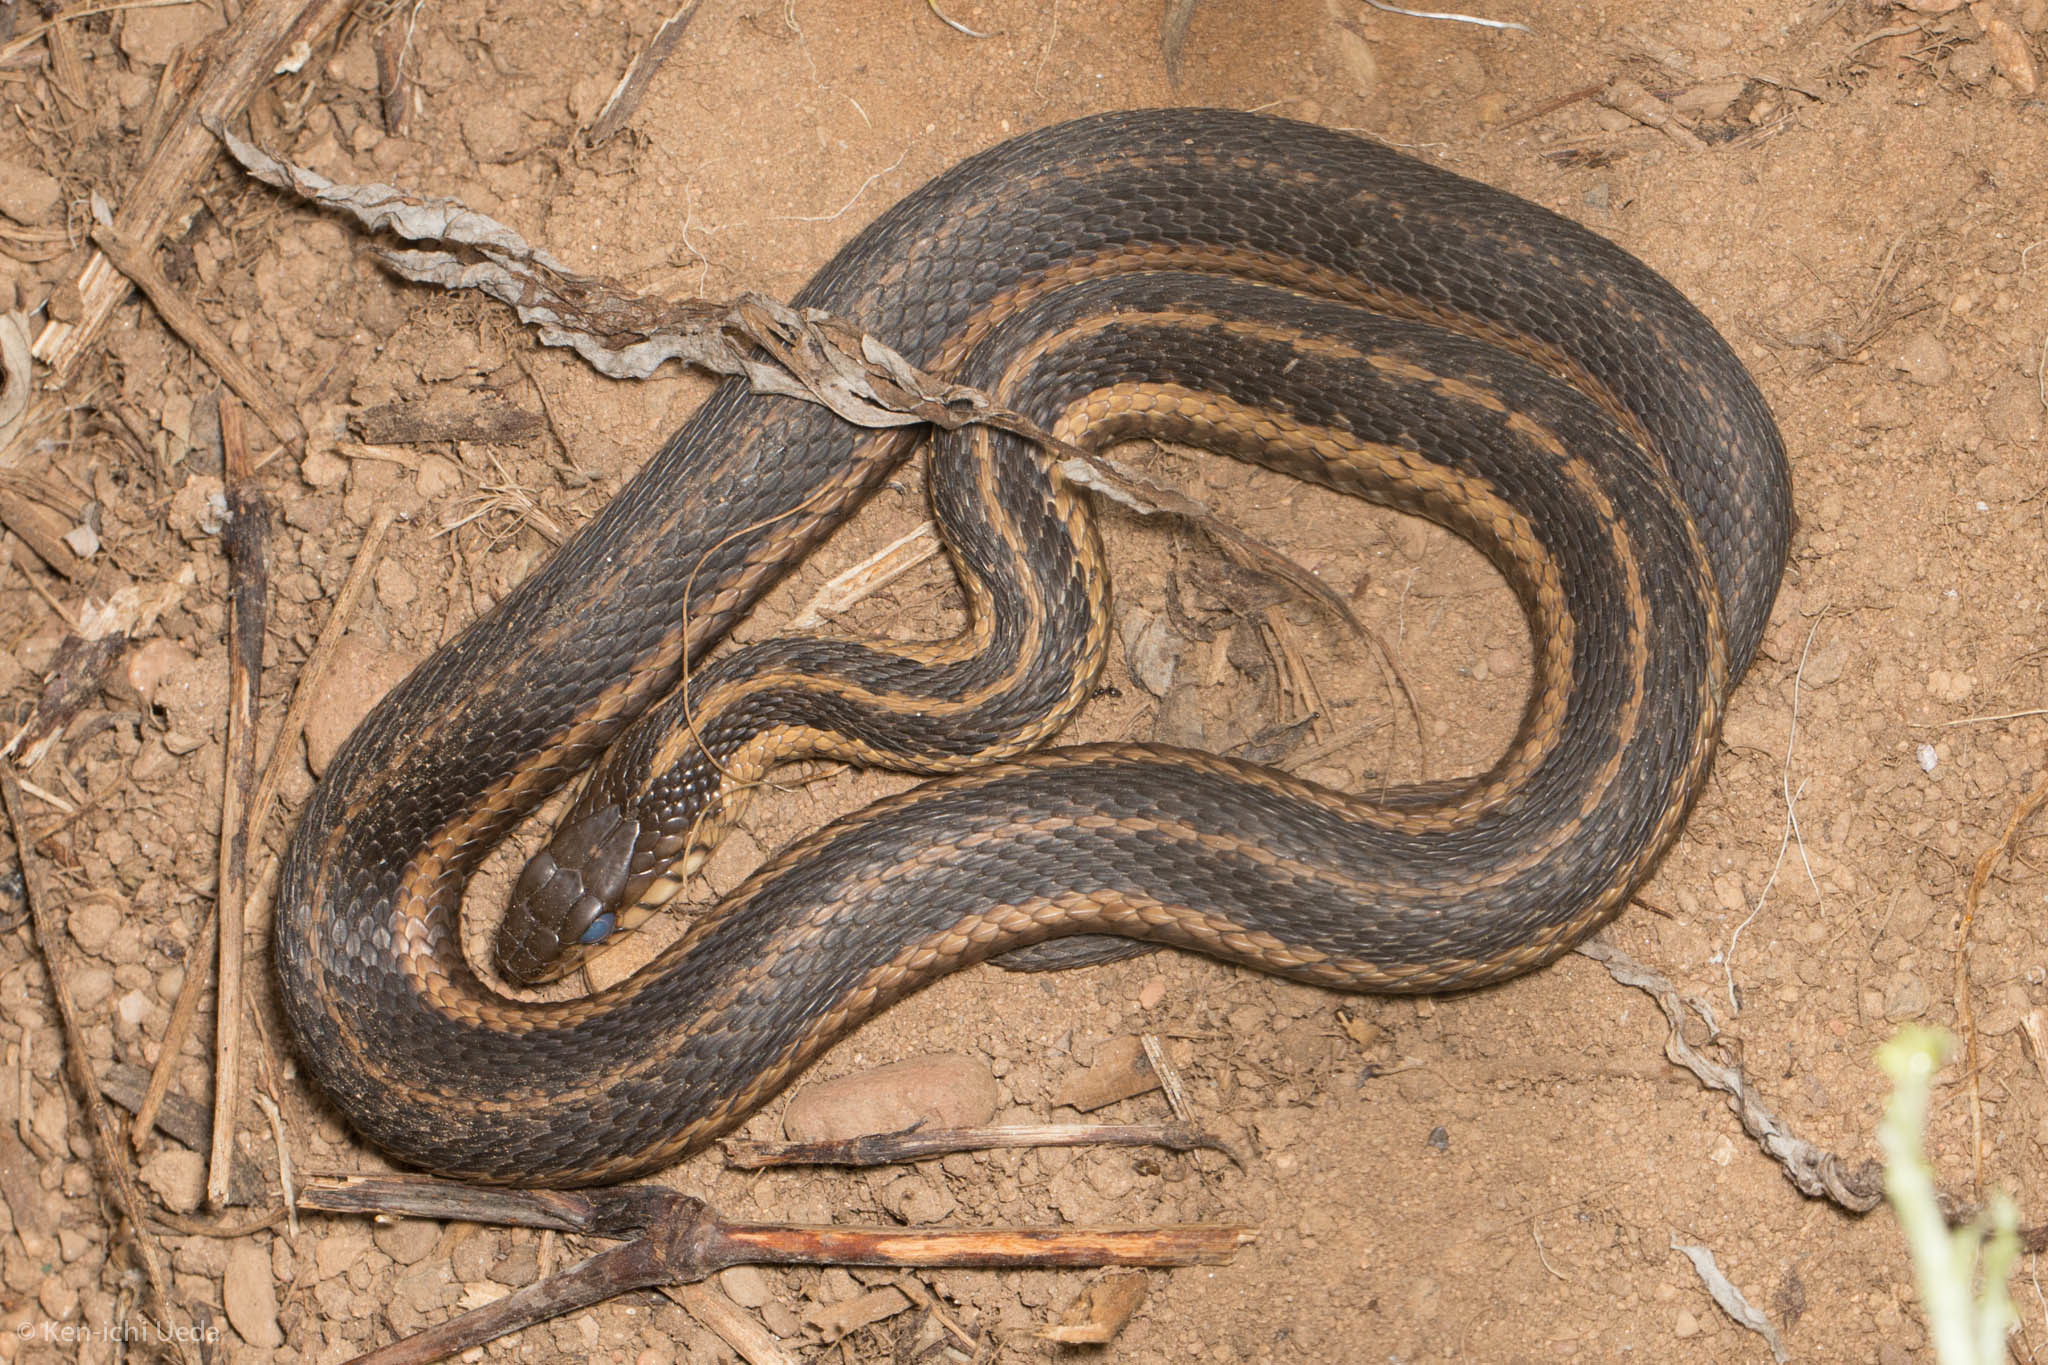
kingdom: Animalia
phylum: Chordata
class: Squamata
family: Colubridae
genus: Thamnophis
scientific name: Thamnophis sirtalis
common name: Common garter snake
